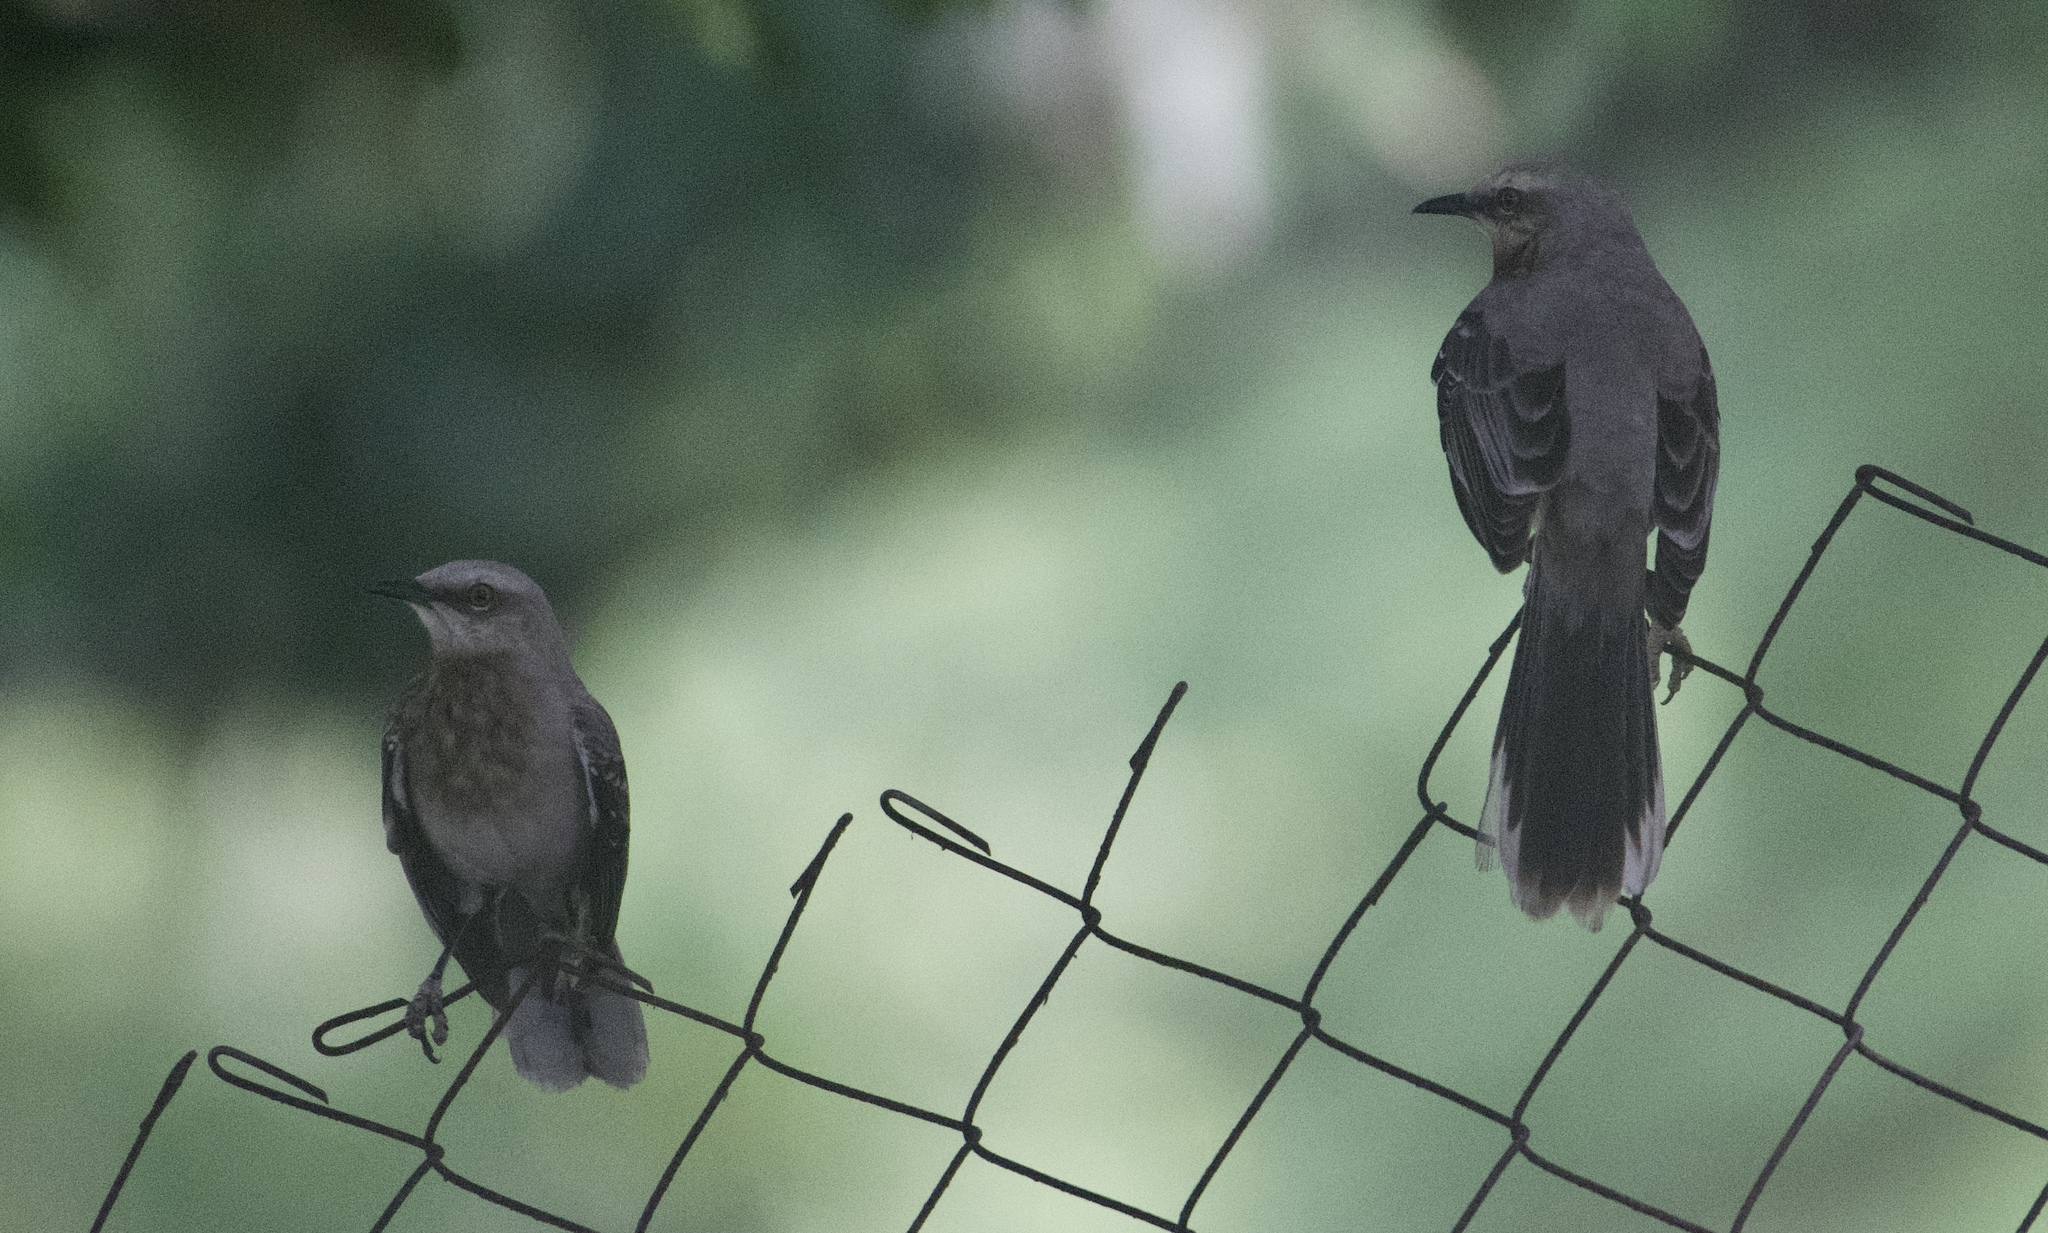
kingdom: Animalia
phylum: Chordata
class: Aves
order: Passeriformes
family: Mimidae
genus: Mimus
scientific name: Mimus gilvus
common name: Tropical mockingbird
